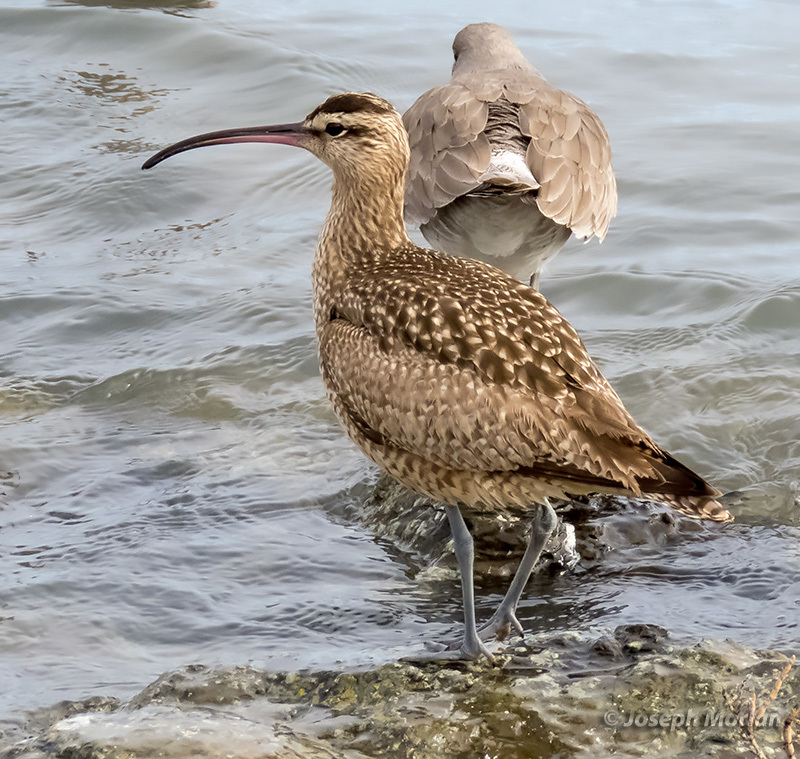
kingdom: Animalia
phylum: Chordata
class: Aves
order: Charadriiformes
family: Scolopacidae
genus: Numenius
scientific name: Numenius phaeopus
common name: Whimbrel
